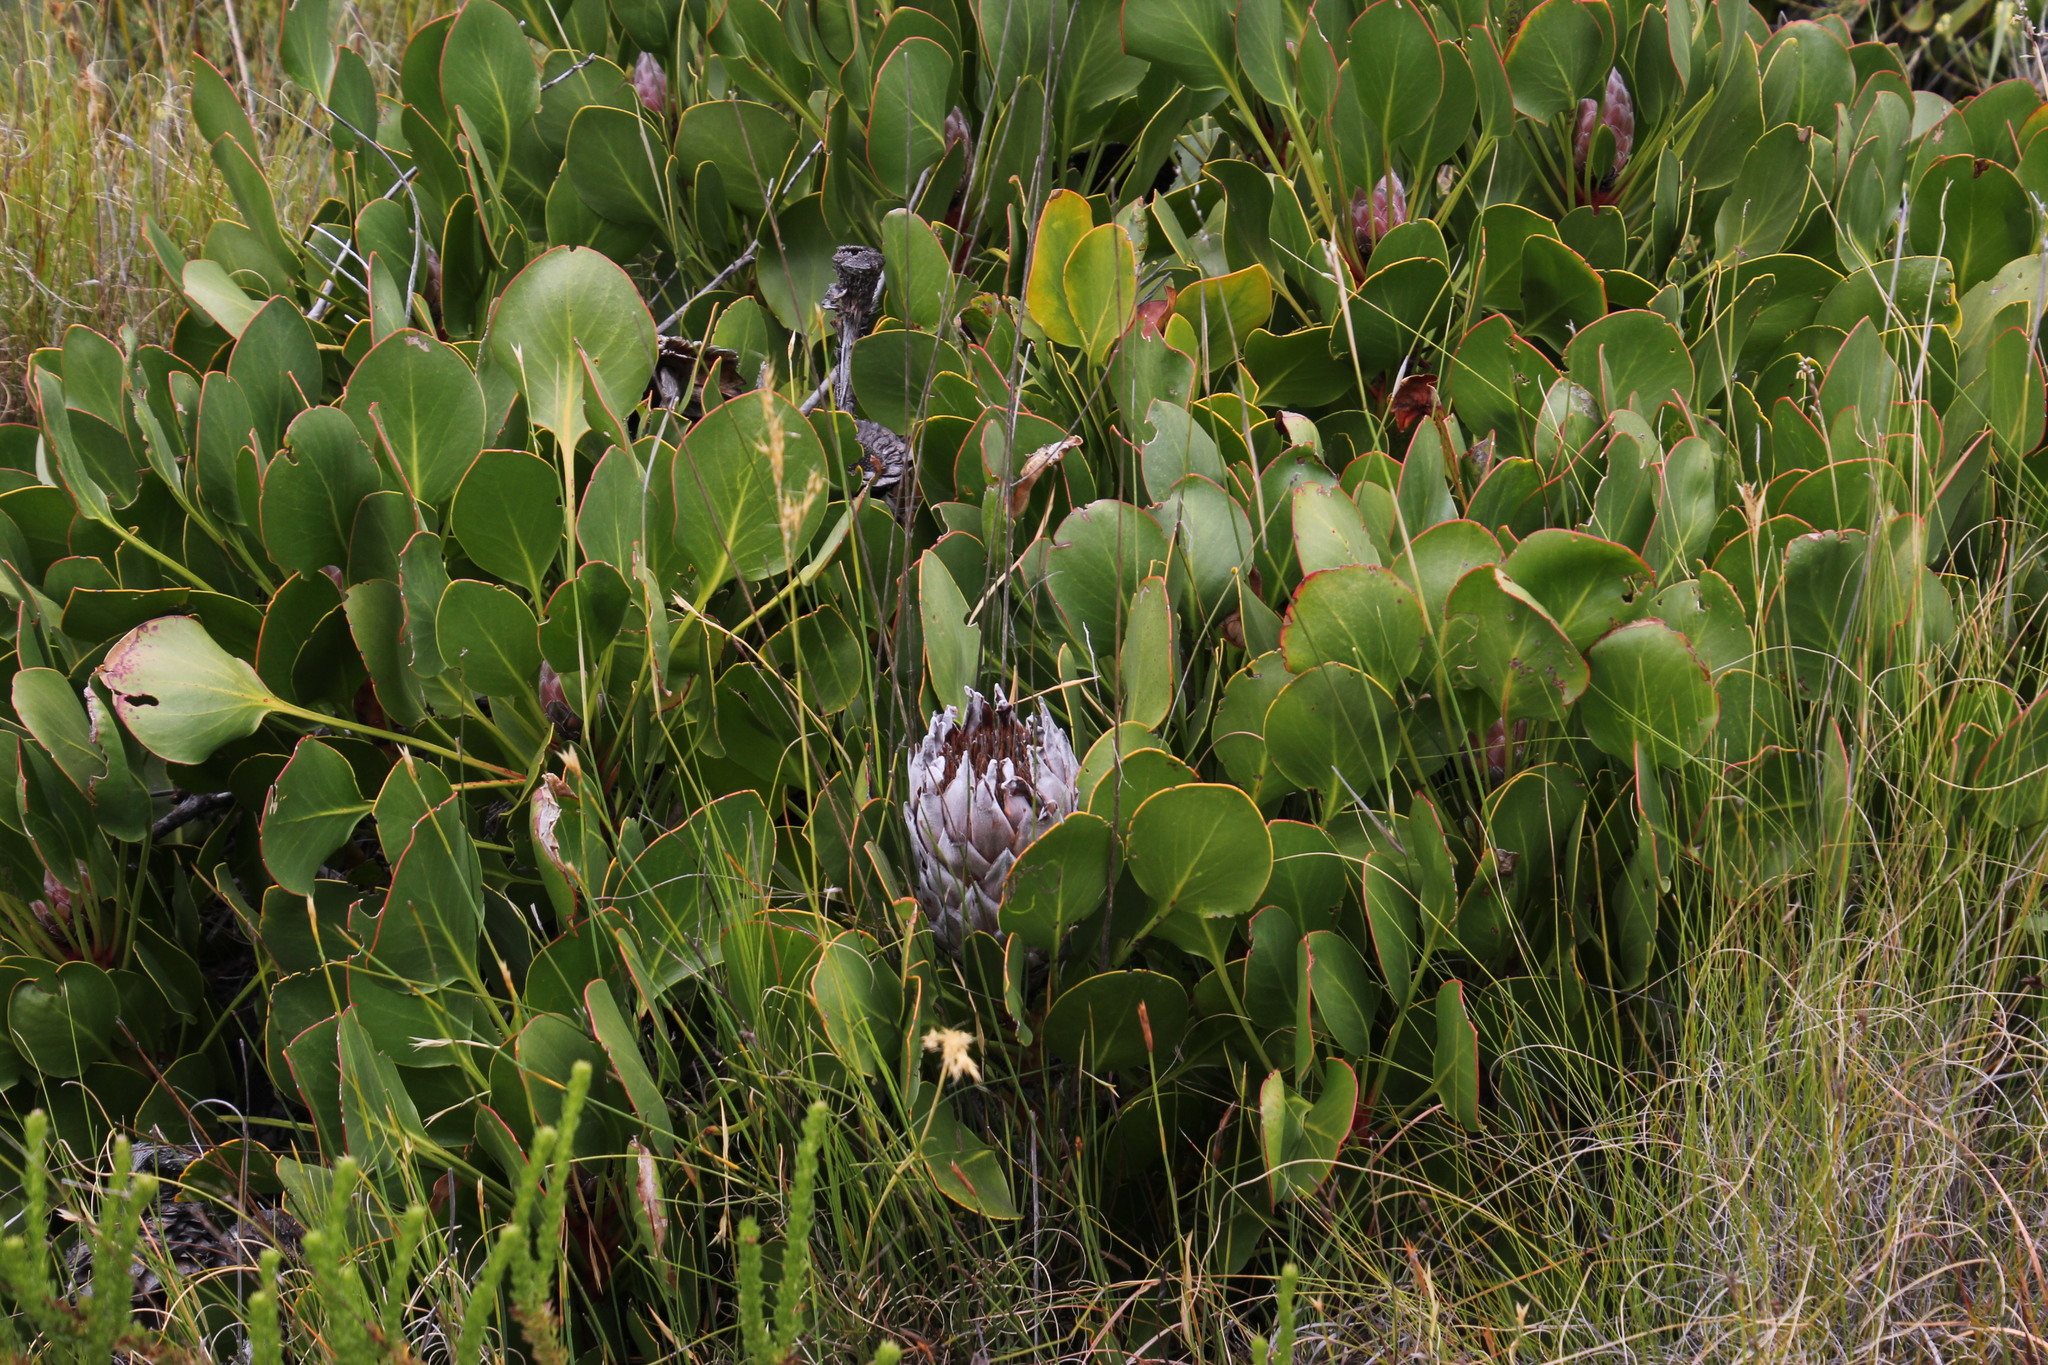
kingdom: Plantae
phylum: Tracheophyta
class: Magnoliopsida
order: Proteales
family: Proteaceae
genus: Protea
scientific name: Protea cynaroides
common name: King protea
